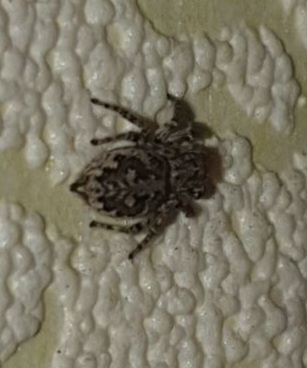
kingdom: Animalia
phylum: Arthropoda
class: Arachnida
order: Araneae
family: Salticidae
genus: Attulus
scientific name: Attulus dzieduszyckii
